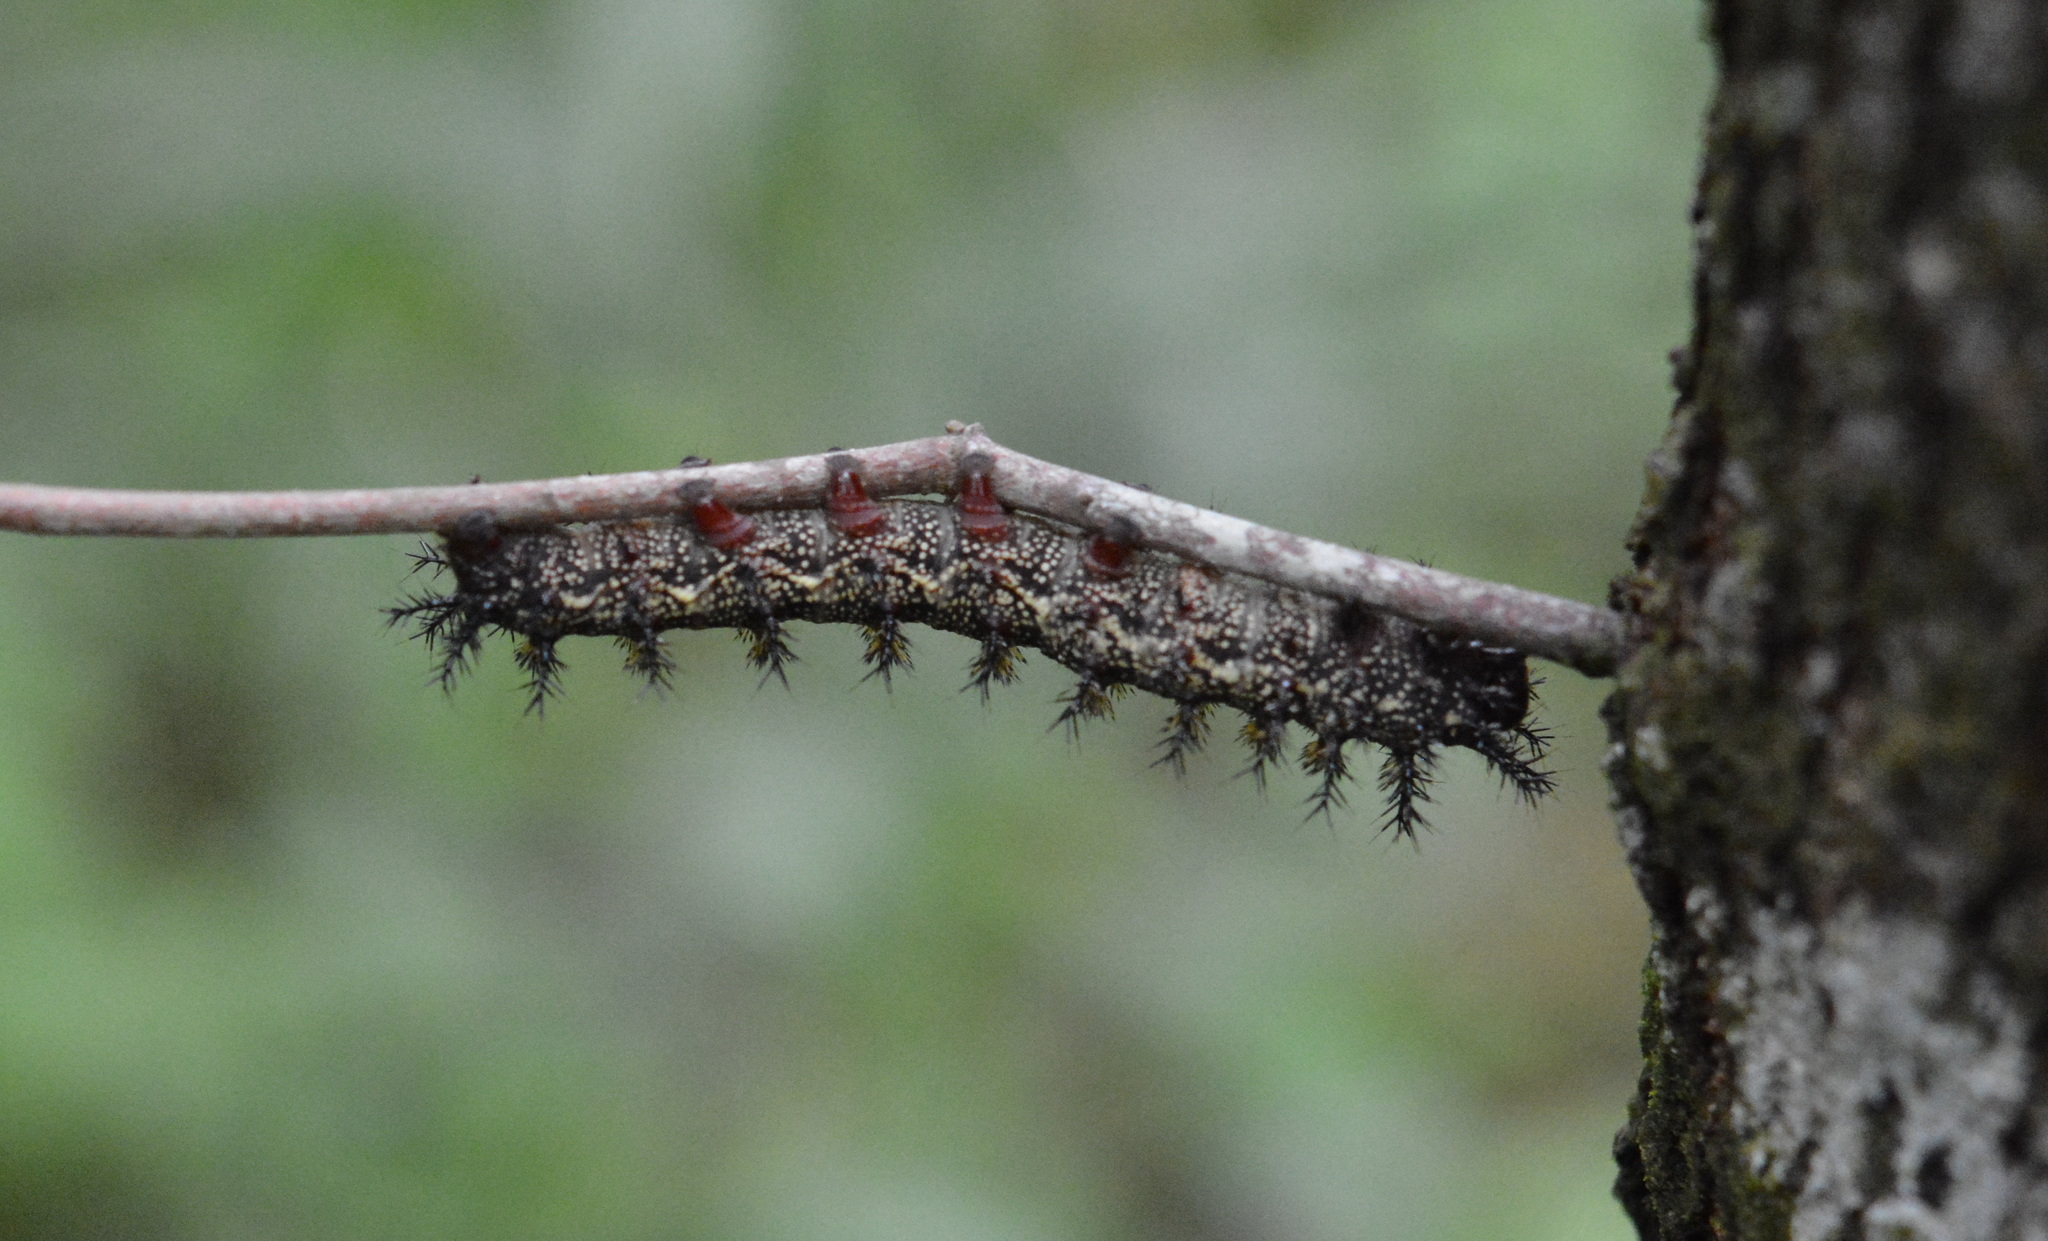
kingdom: Animalia
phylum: Arthropoda
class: Insecta
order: Lepidoptera
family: Saturniidae
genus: Hemileuca
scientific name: Hemileuca maia
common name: Eastern buckmoth
